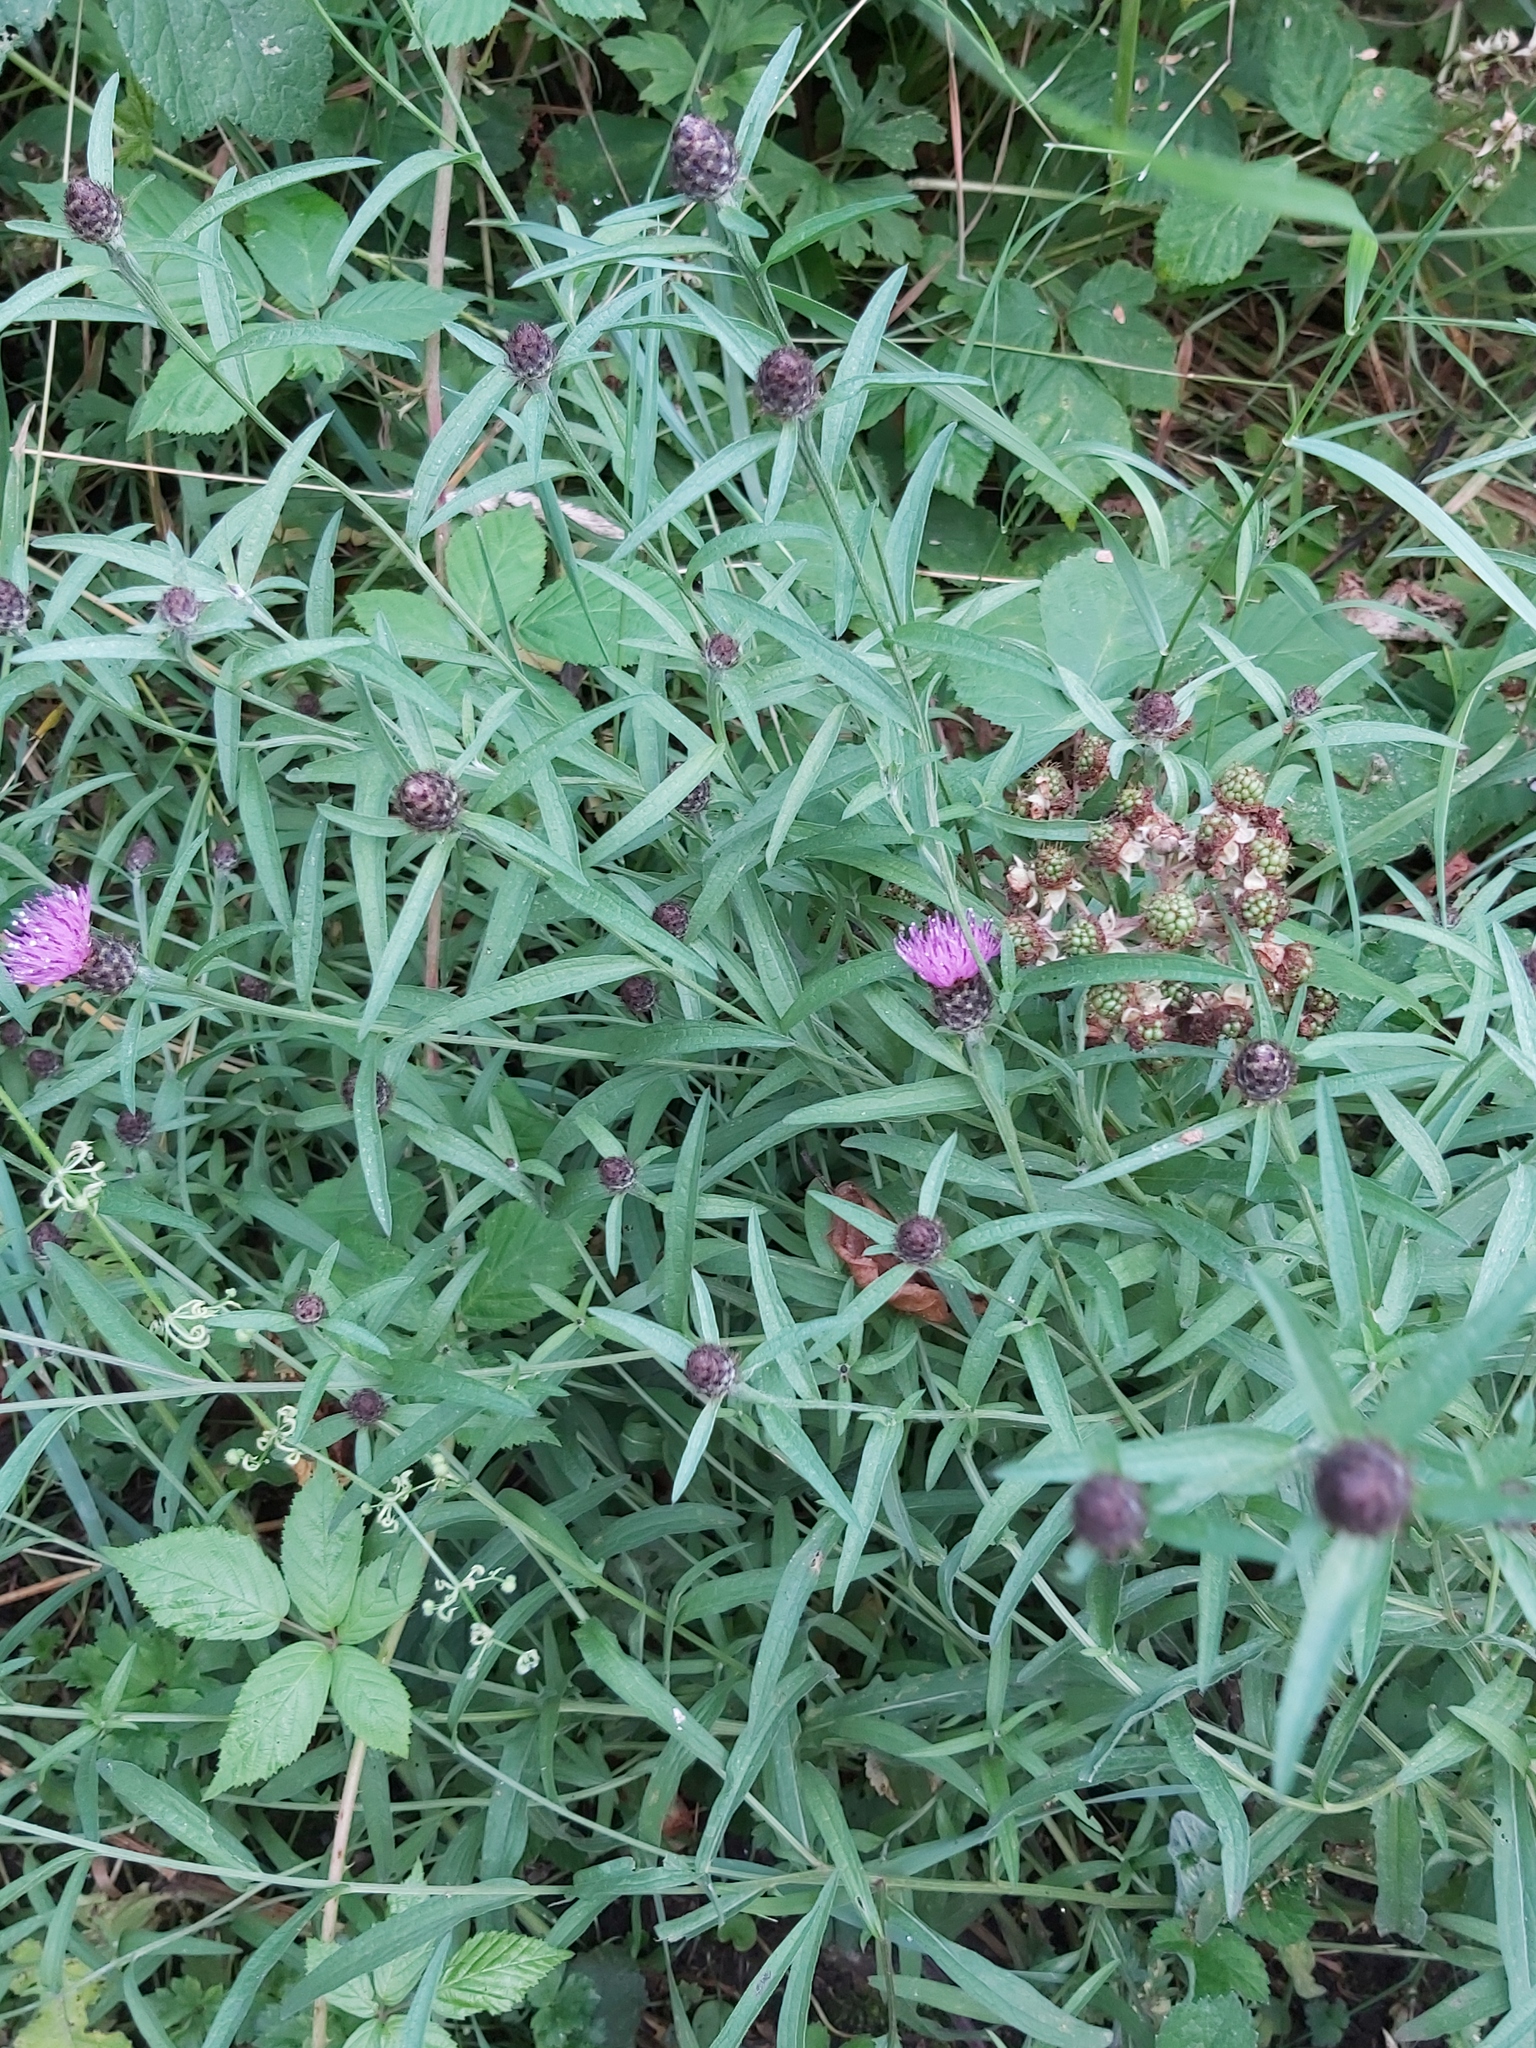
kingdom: Plantae
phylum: Tracheophyta
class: Magnoliopsida
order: Asterales
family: Asteraceae
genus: Centaurea
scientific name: Centaurea nigra
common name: Lesser knapweed
